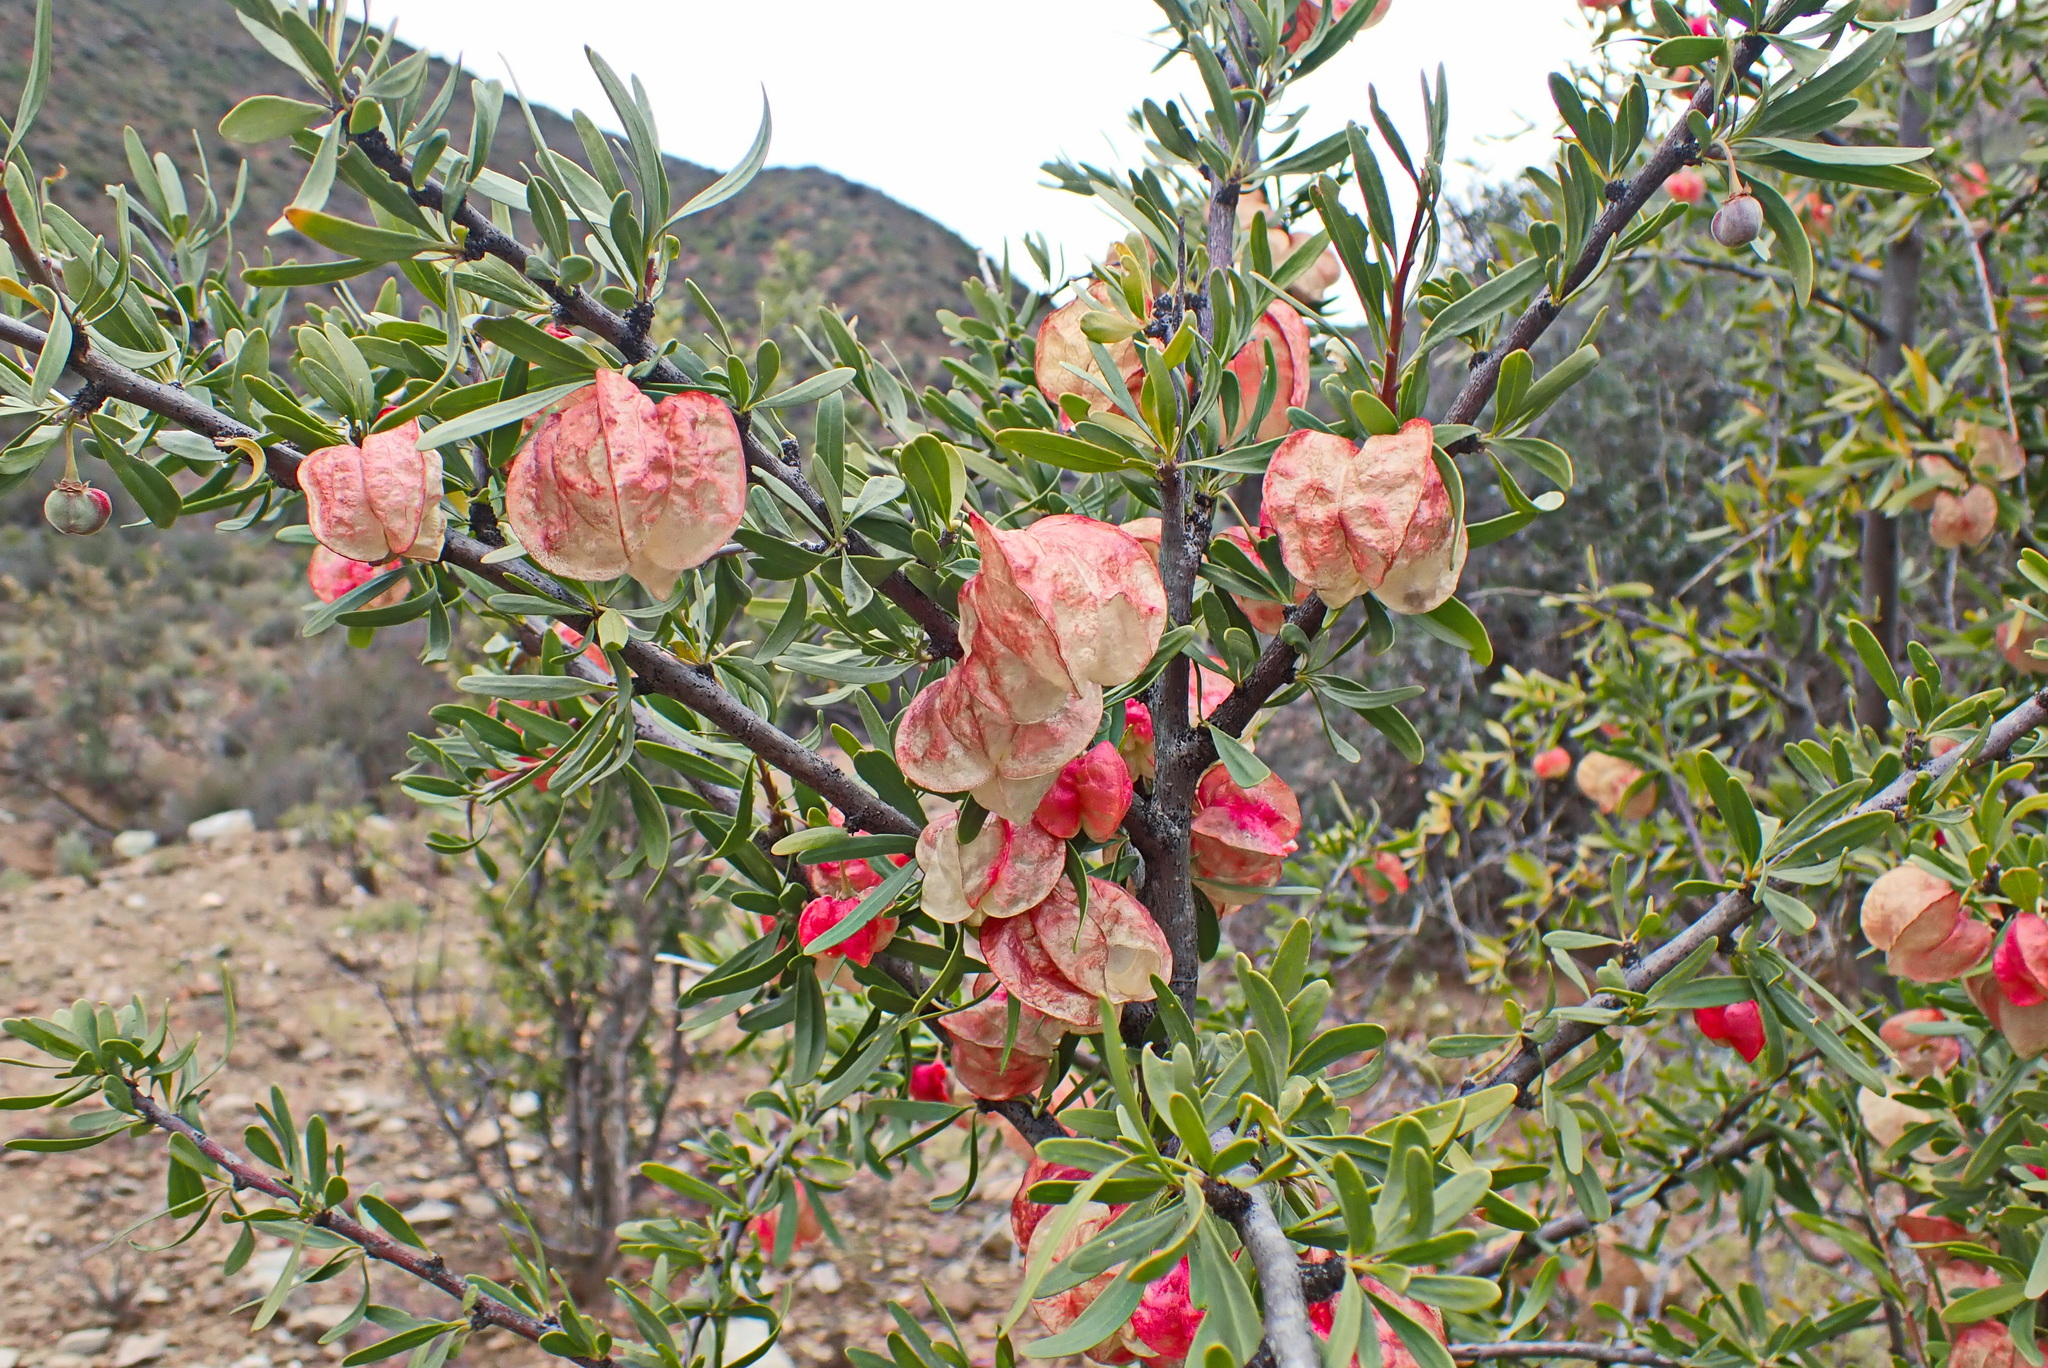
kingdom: Plantae
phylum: Tracheophyta
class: Magnoliopsida
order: Sapindales
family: Meliaceae
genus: Nymania
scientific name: Nymania capensis
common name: Chinese lantern tree
